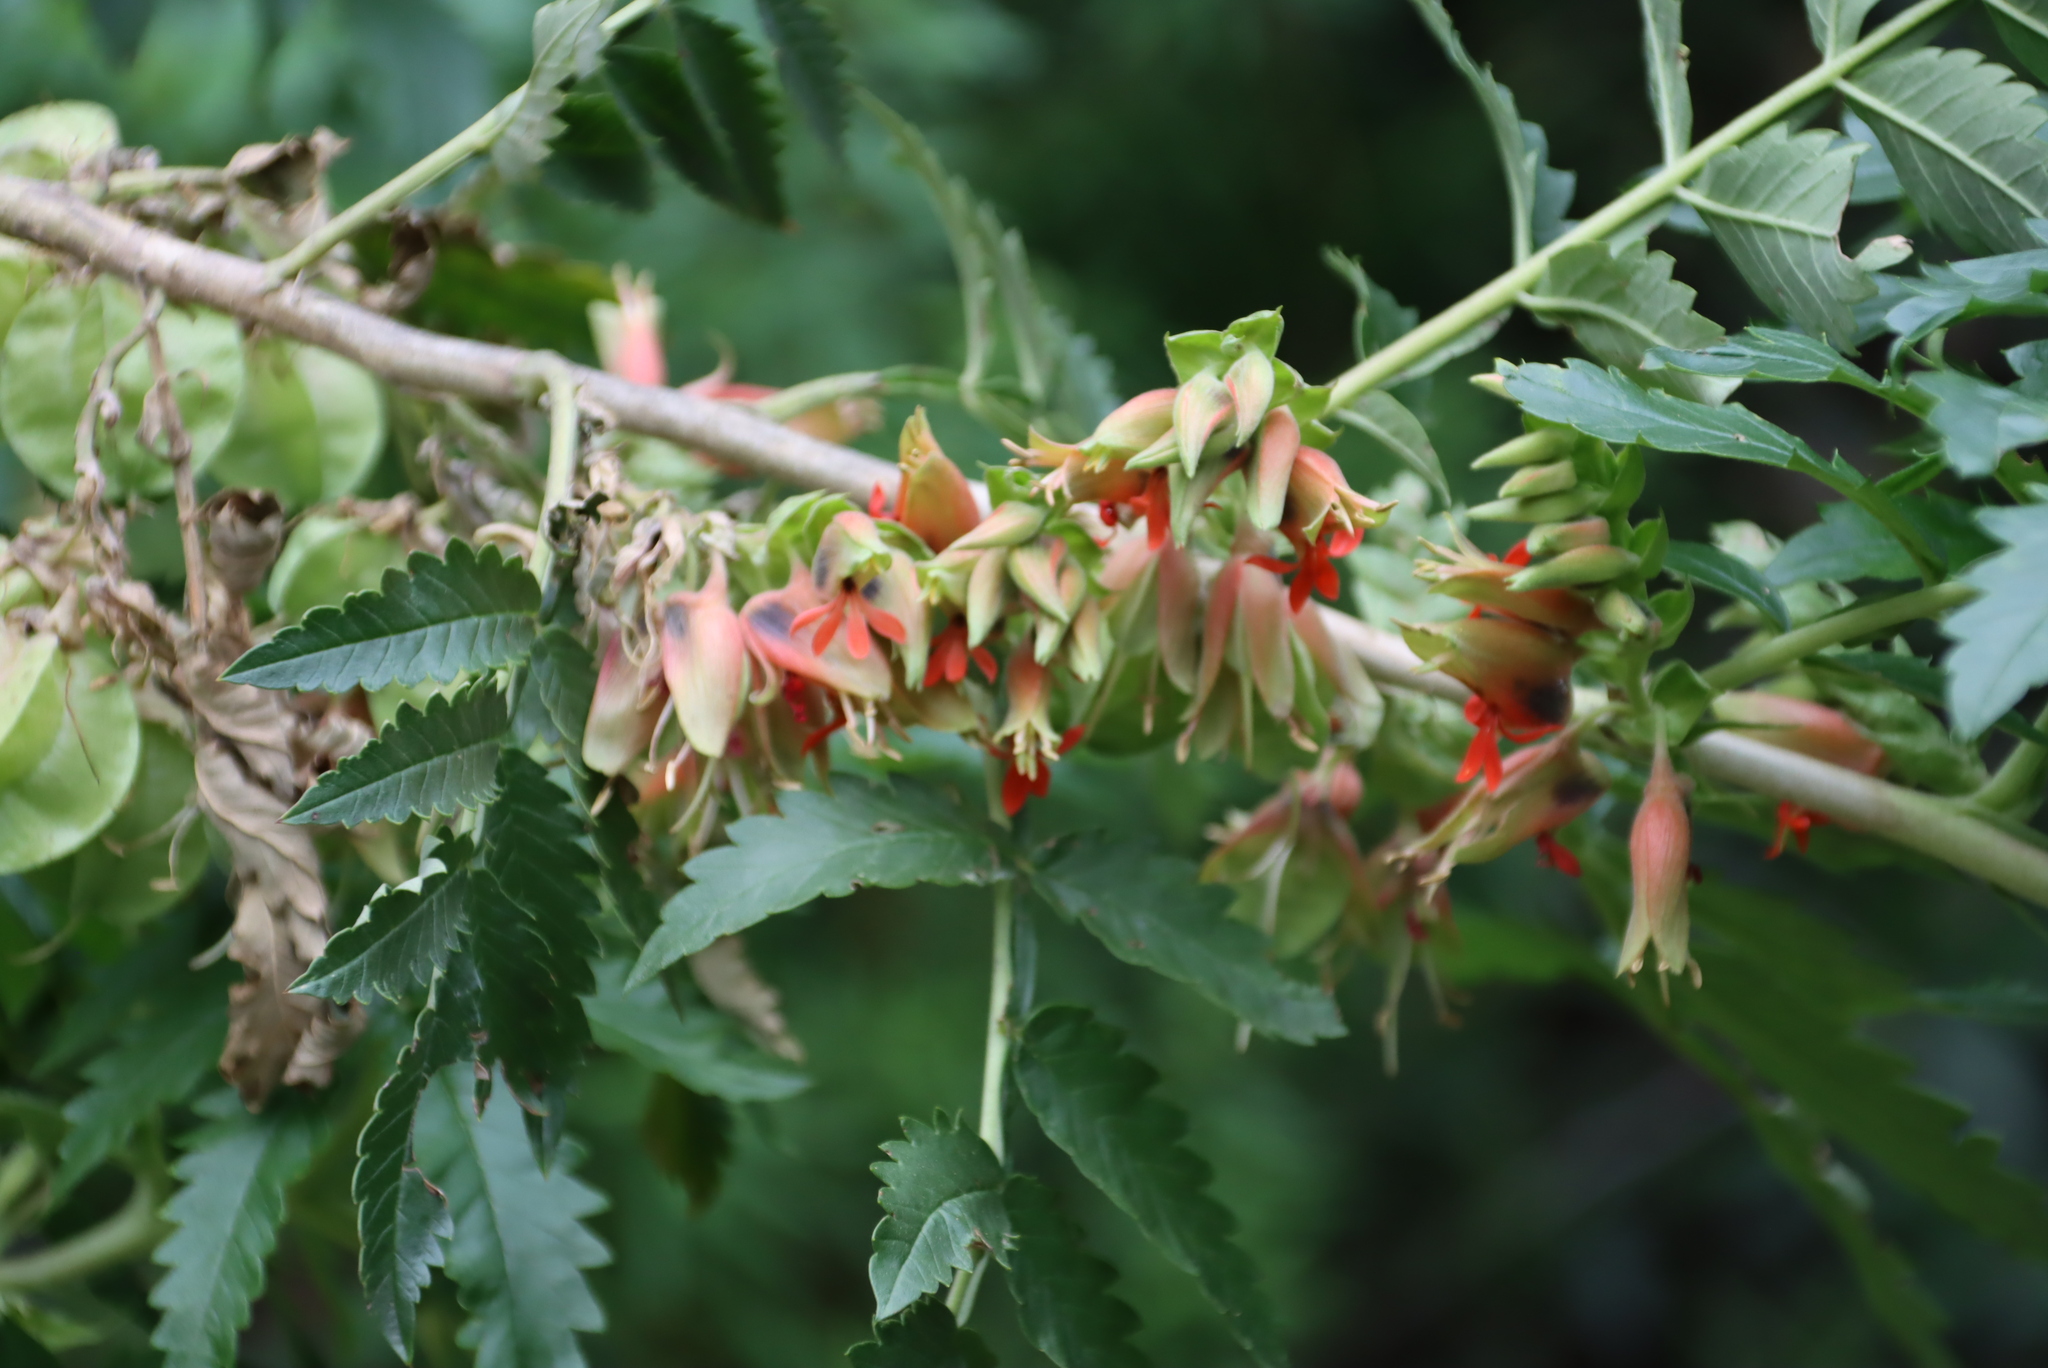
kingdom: Plantae
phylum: Tracheophyta
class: Magnoliopsida
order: Geraniales
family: Melianthaceae
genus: Melianthus
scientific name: Melianthus comosus
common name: Touch-me-not
